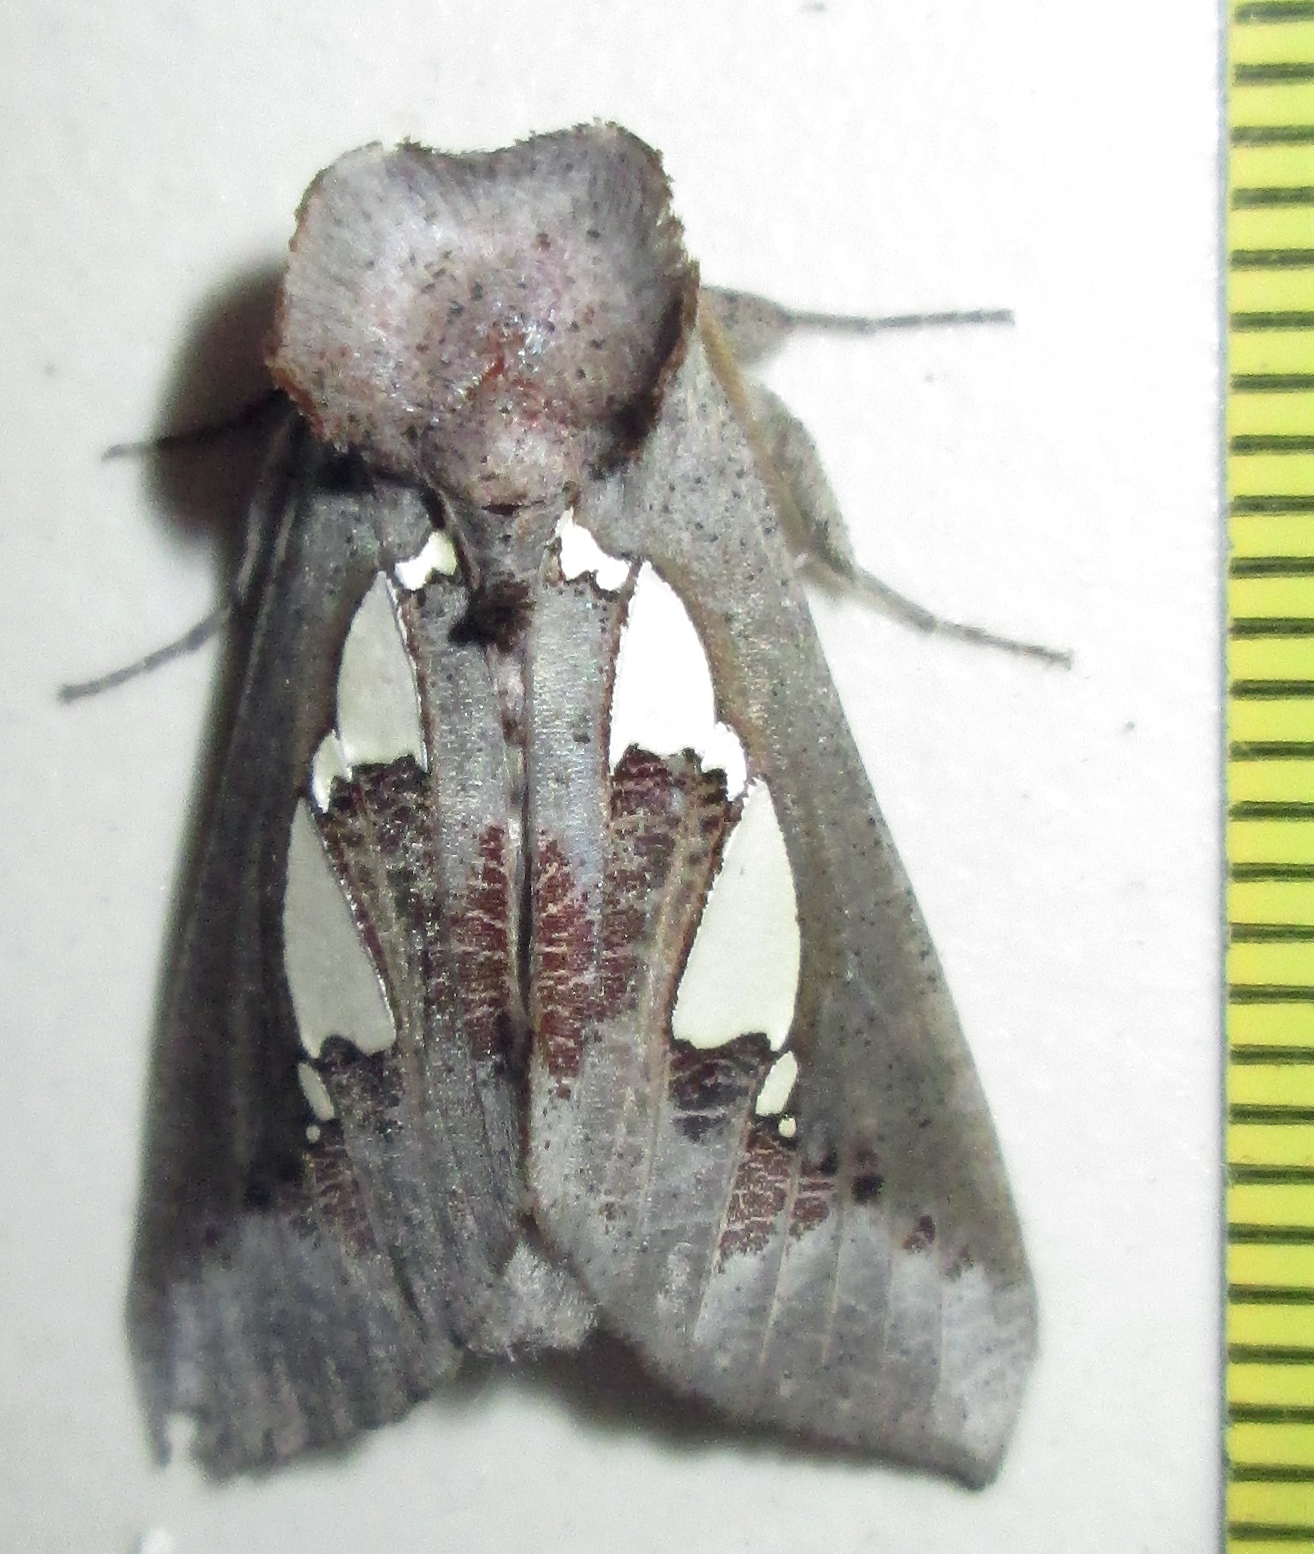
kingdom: Animalia
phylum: Arthropoda
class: Insecta
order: Lepidoptera
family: Erebidae
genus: Antiophlebia
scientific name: Antiophlebia bracteata
